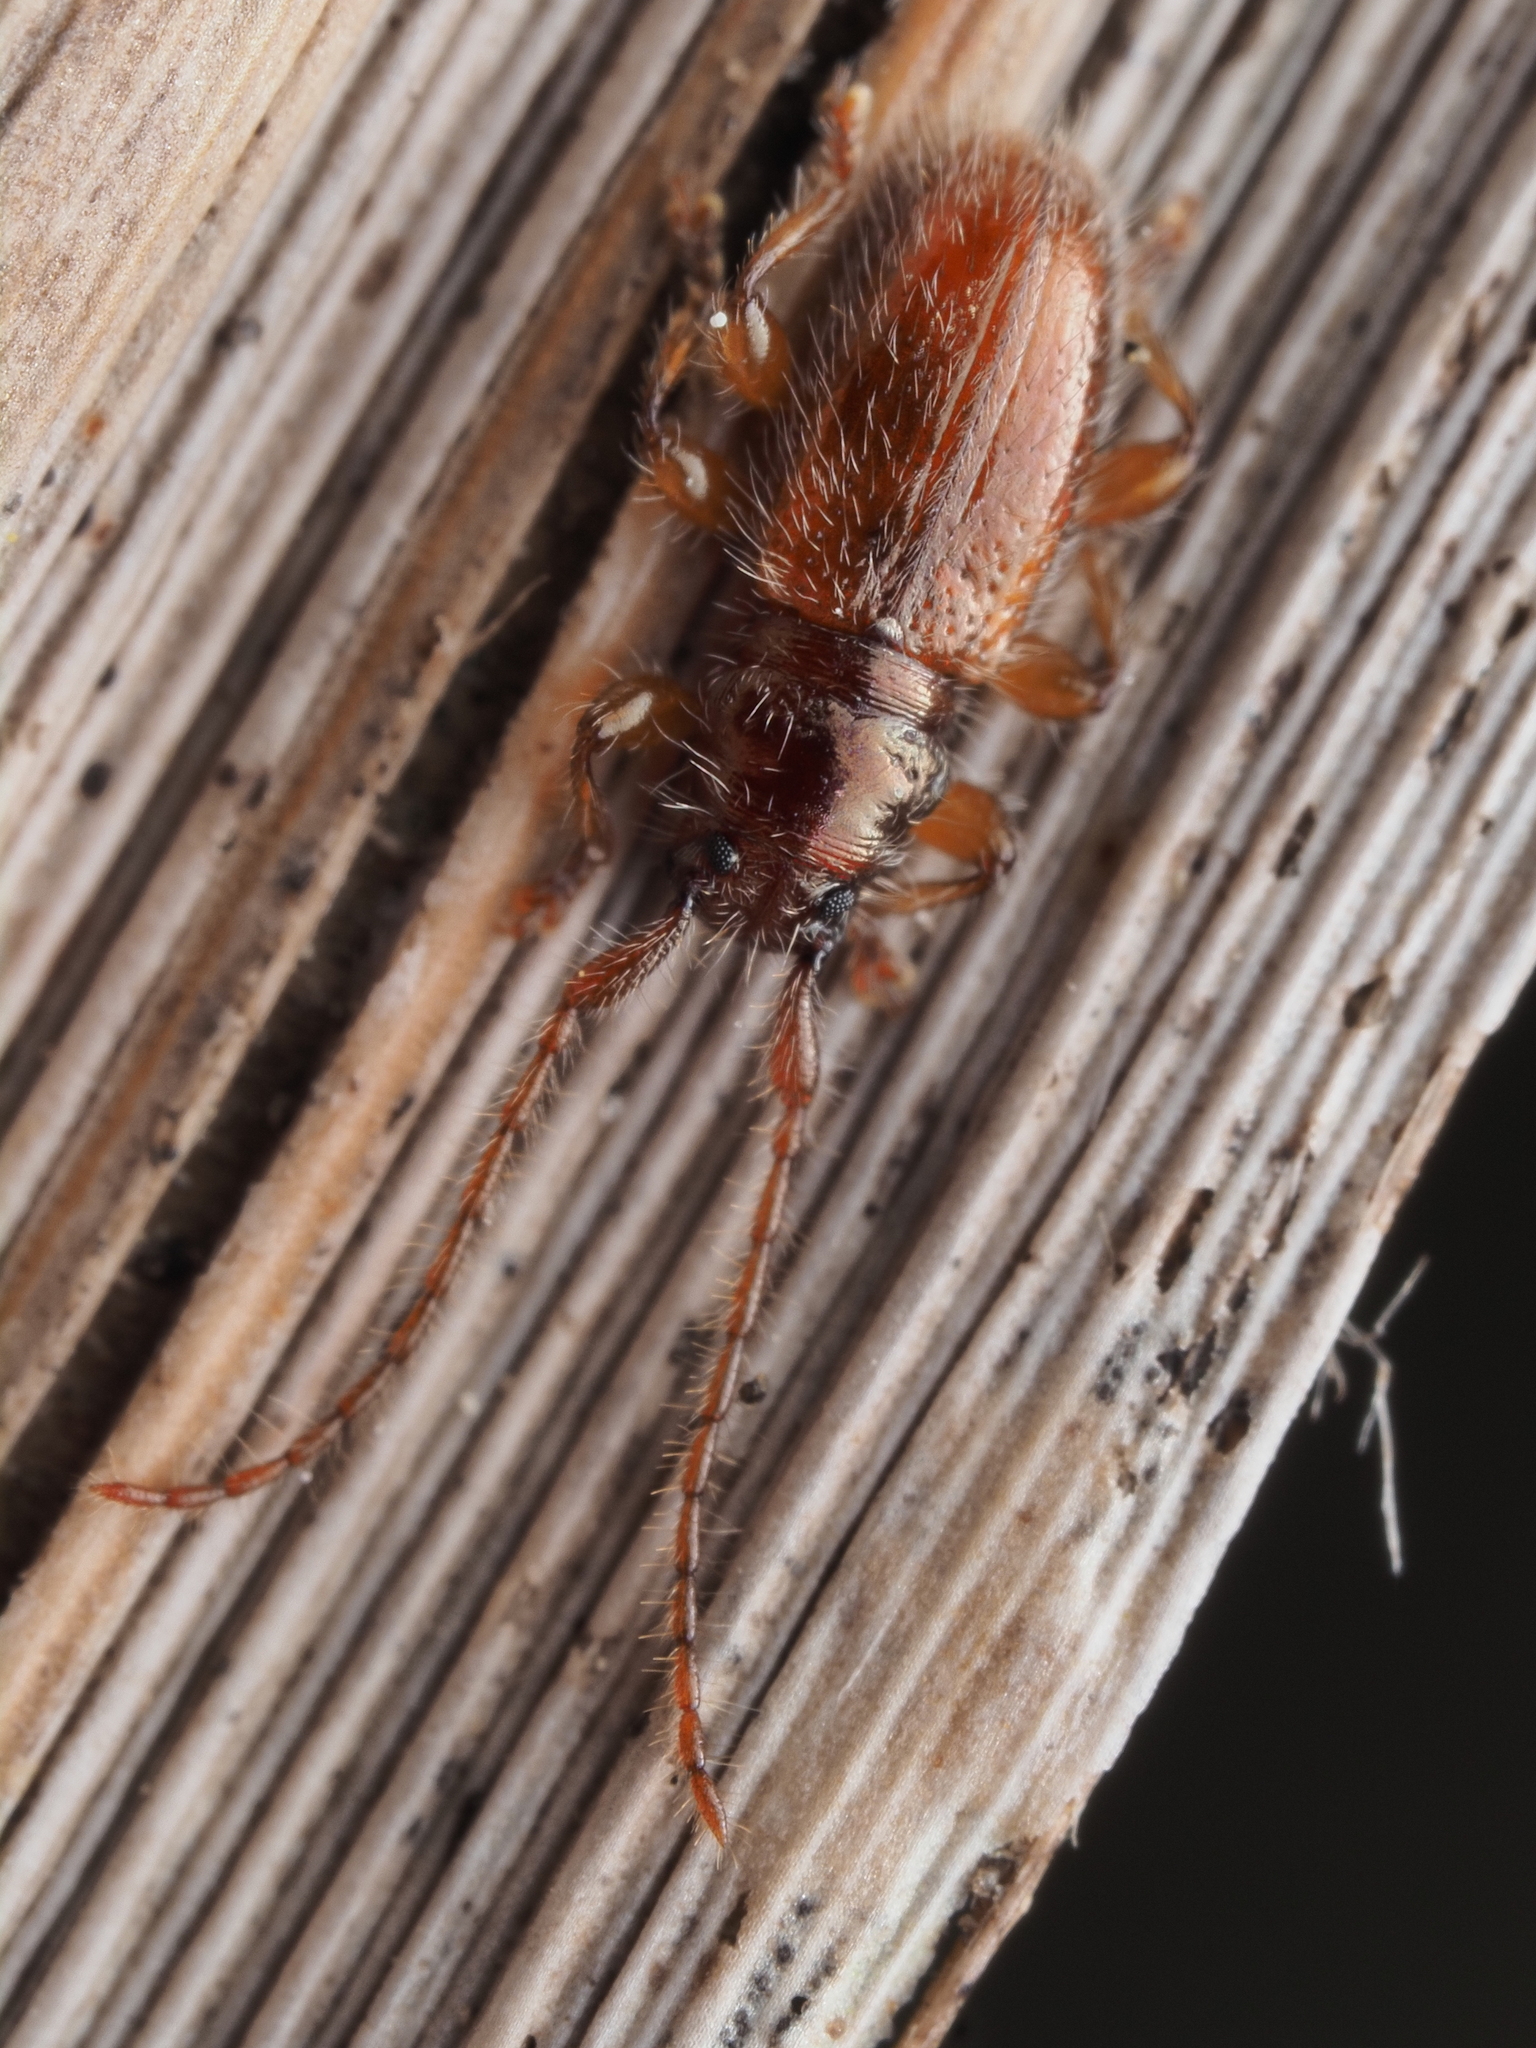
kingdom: Animalia
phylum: Arthropoda
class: Insecta
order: Coleoptera
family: Cerambycidae
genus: Microlamia
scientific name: Microlamia pygmaea
